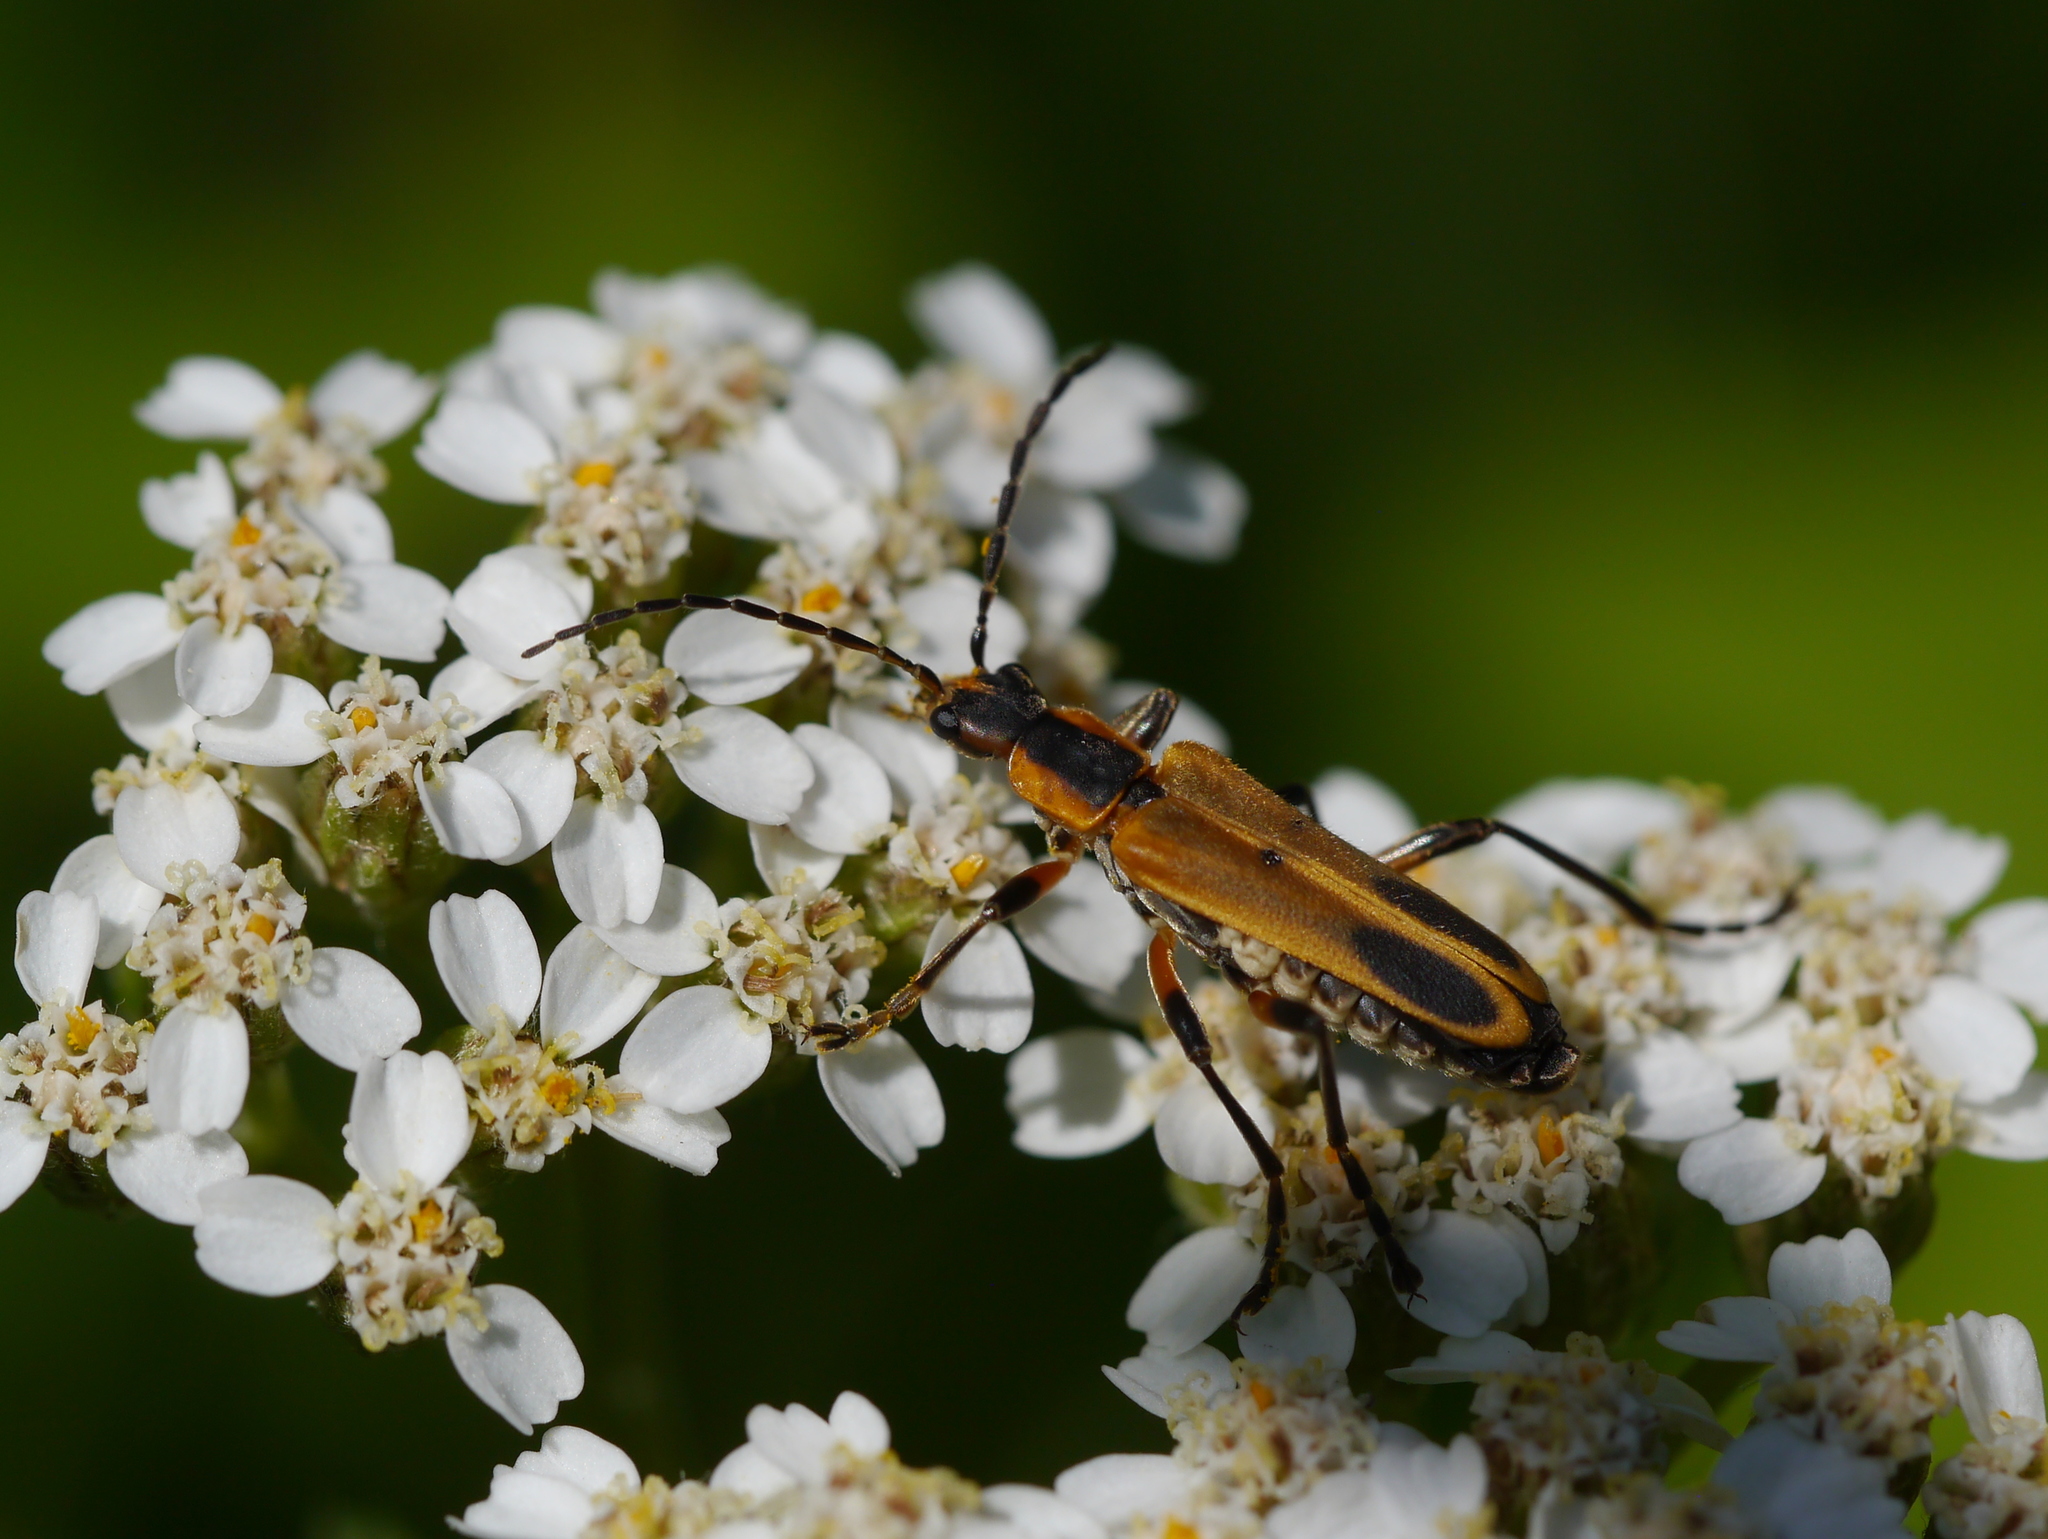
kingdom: Animalia
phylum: Arthropoda
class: Insecta
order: Coleoptera
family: Cantharidae
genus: Chauliognathus
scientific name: Chauliognathus marginatus
